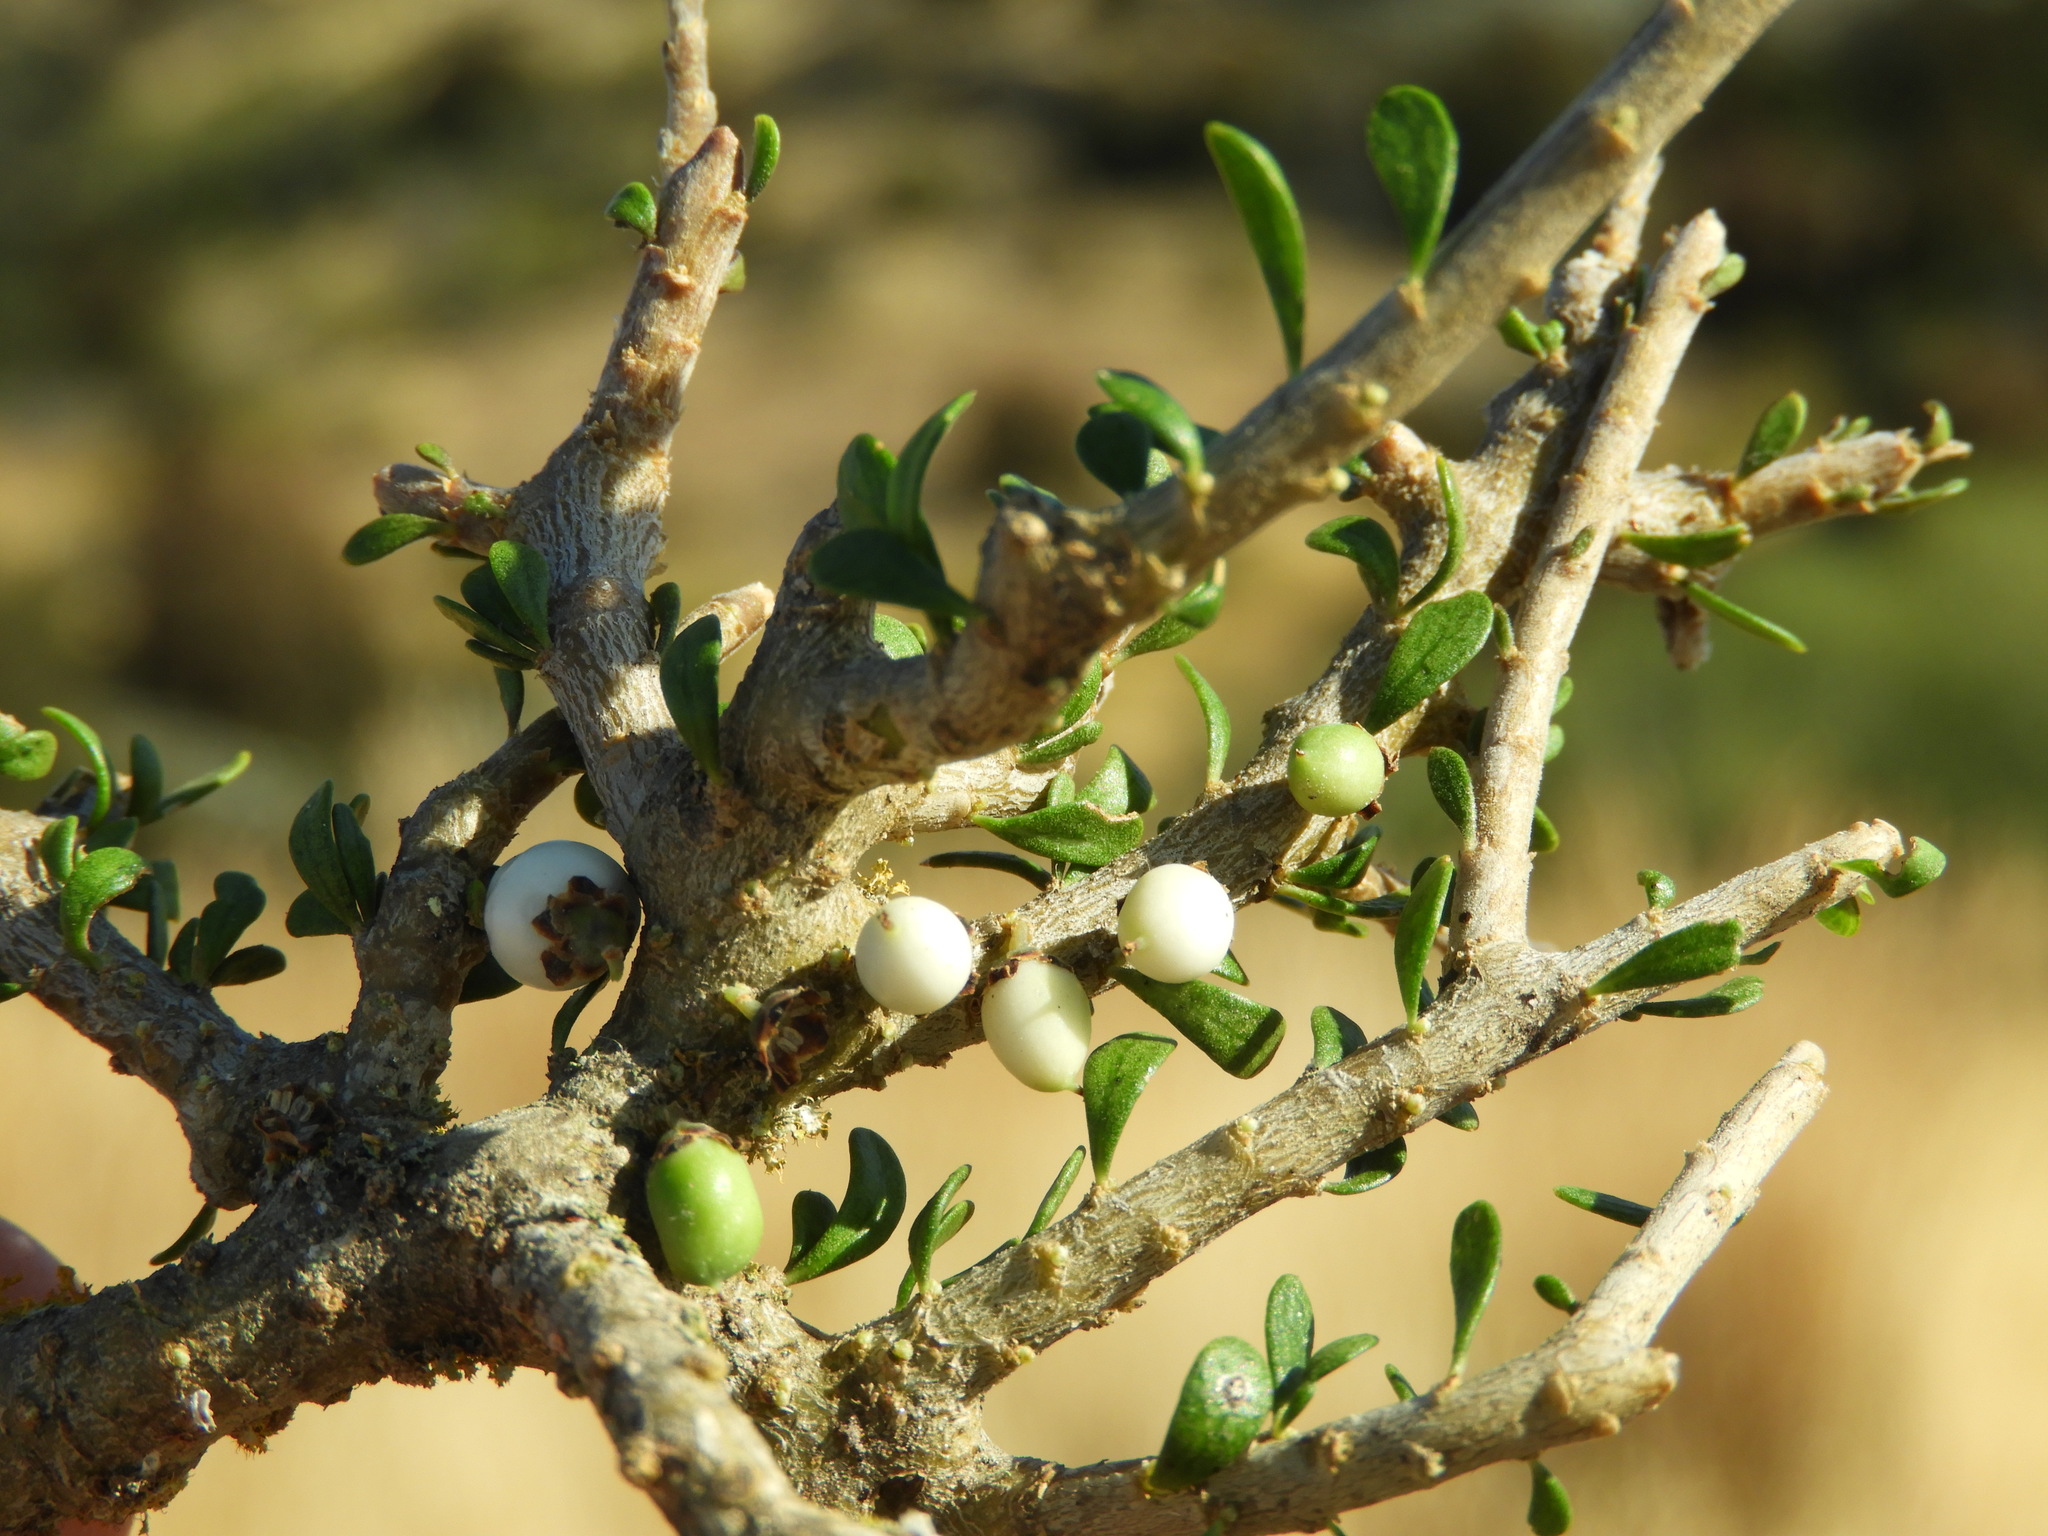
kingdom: Plantae
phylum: Tracheophyta
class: Magnoliopsida
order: Malpighiales
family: Violaceae
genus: Melicytus
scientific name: Melicytus alpinus
